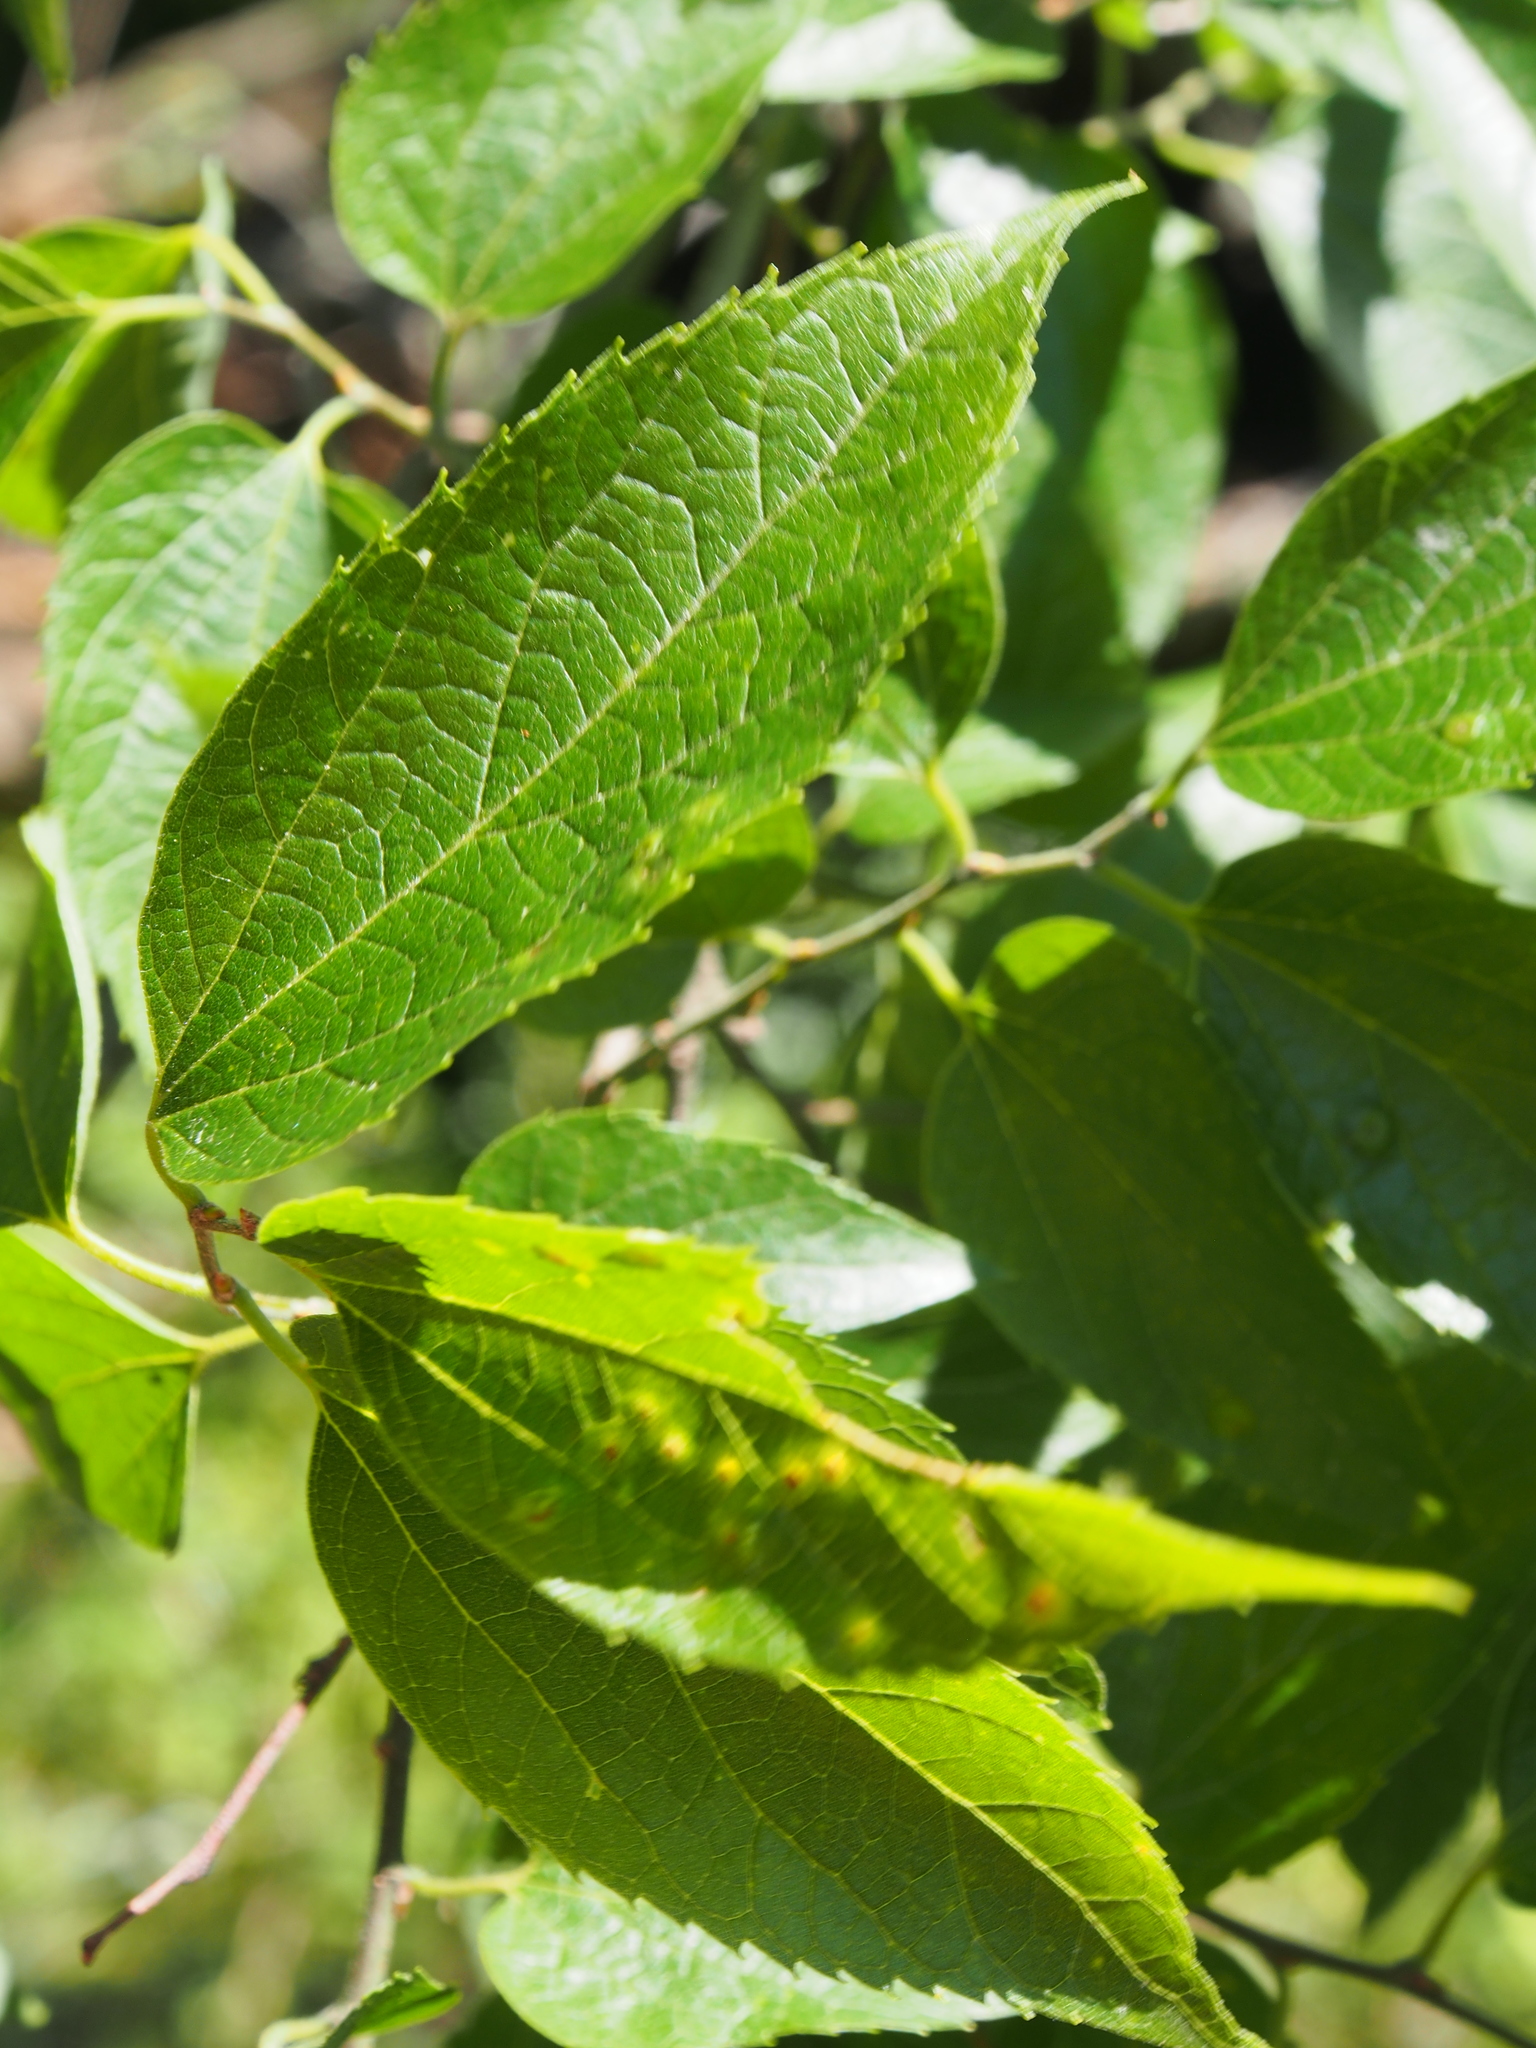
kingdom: Plantae
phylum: Tracheophyta
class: Magnoliopsida
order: Rosales
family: Cannabaceae
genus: Celtis
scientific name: Celtis occidentalis
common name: Common hackberry
